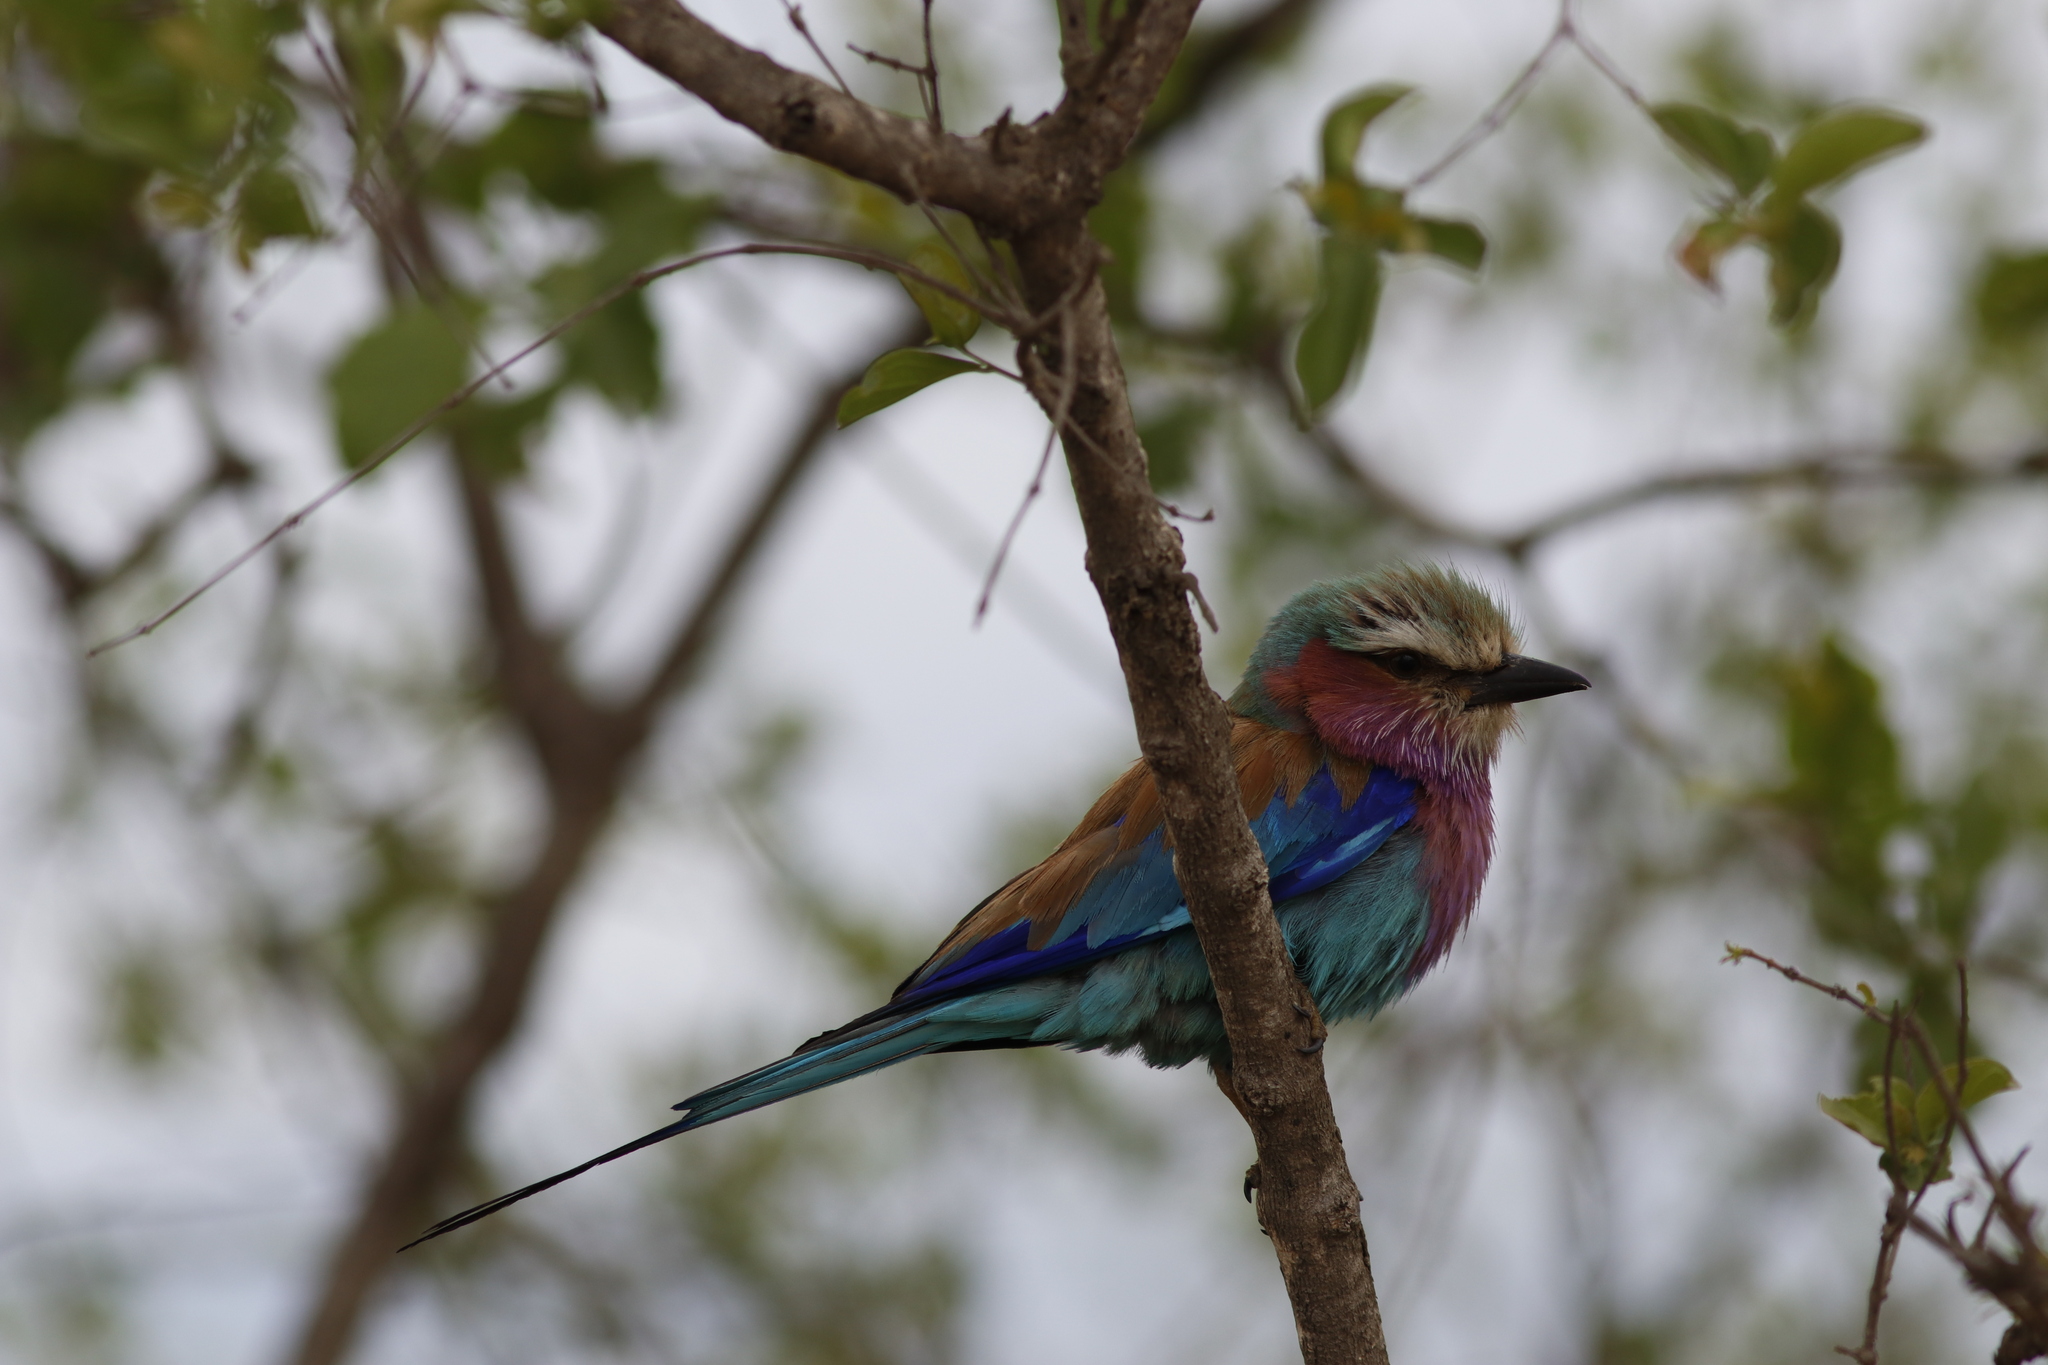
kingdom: Animalia
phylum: Chordata
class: Aves
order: Coraciiformes
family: Coraciidae
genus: Coracias
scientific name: Coracias caudatus
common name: Lilac-breasted roller
